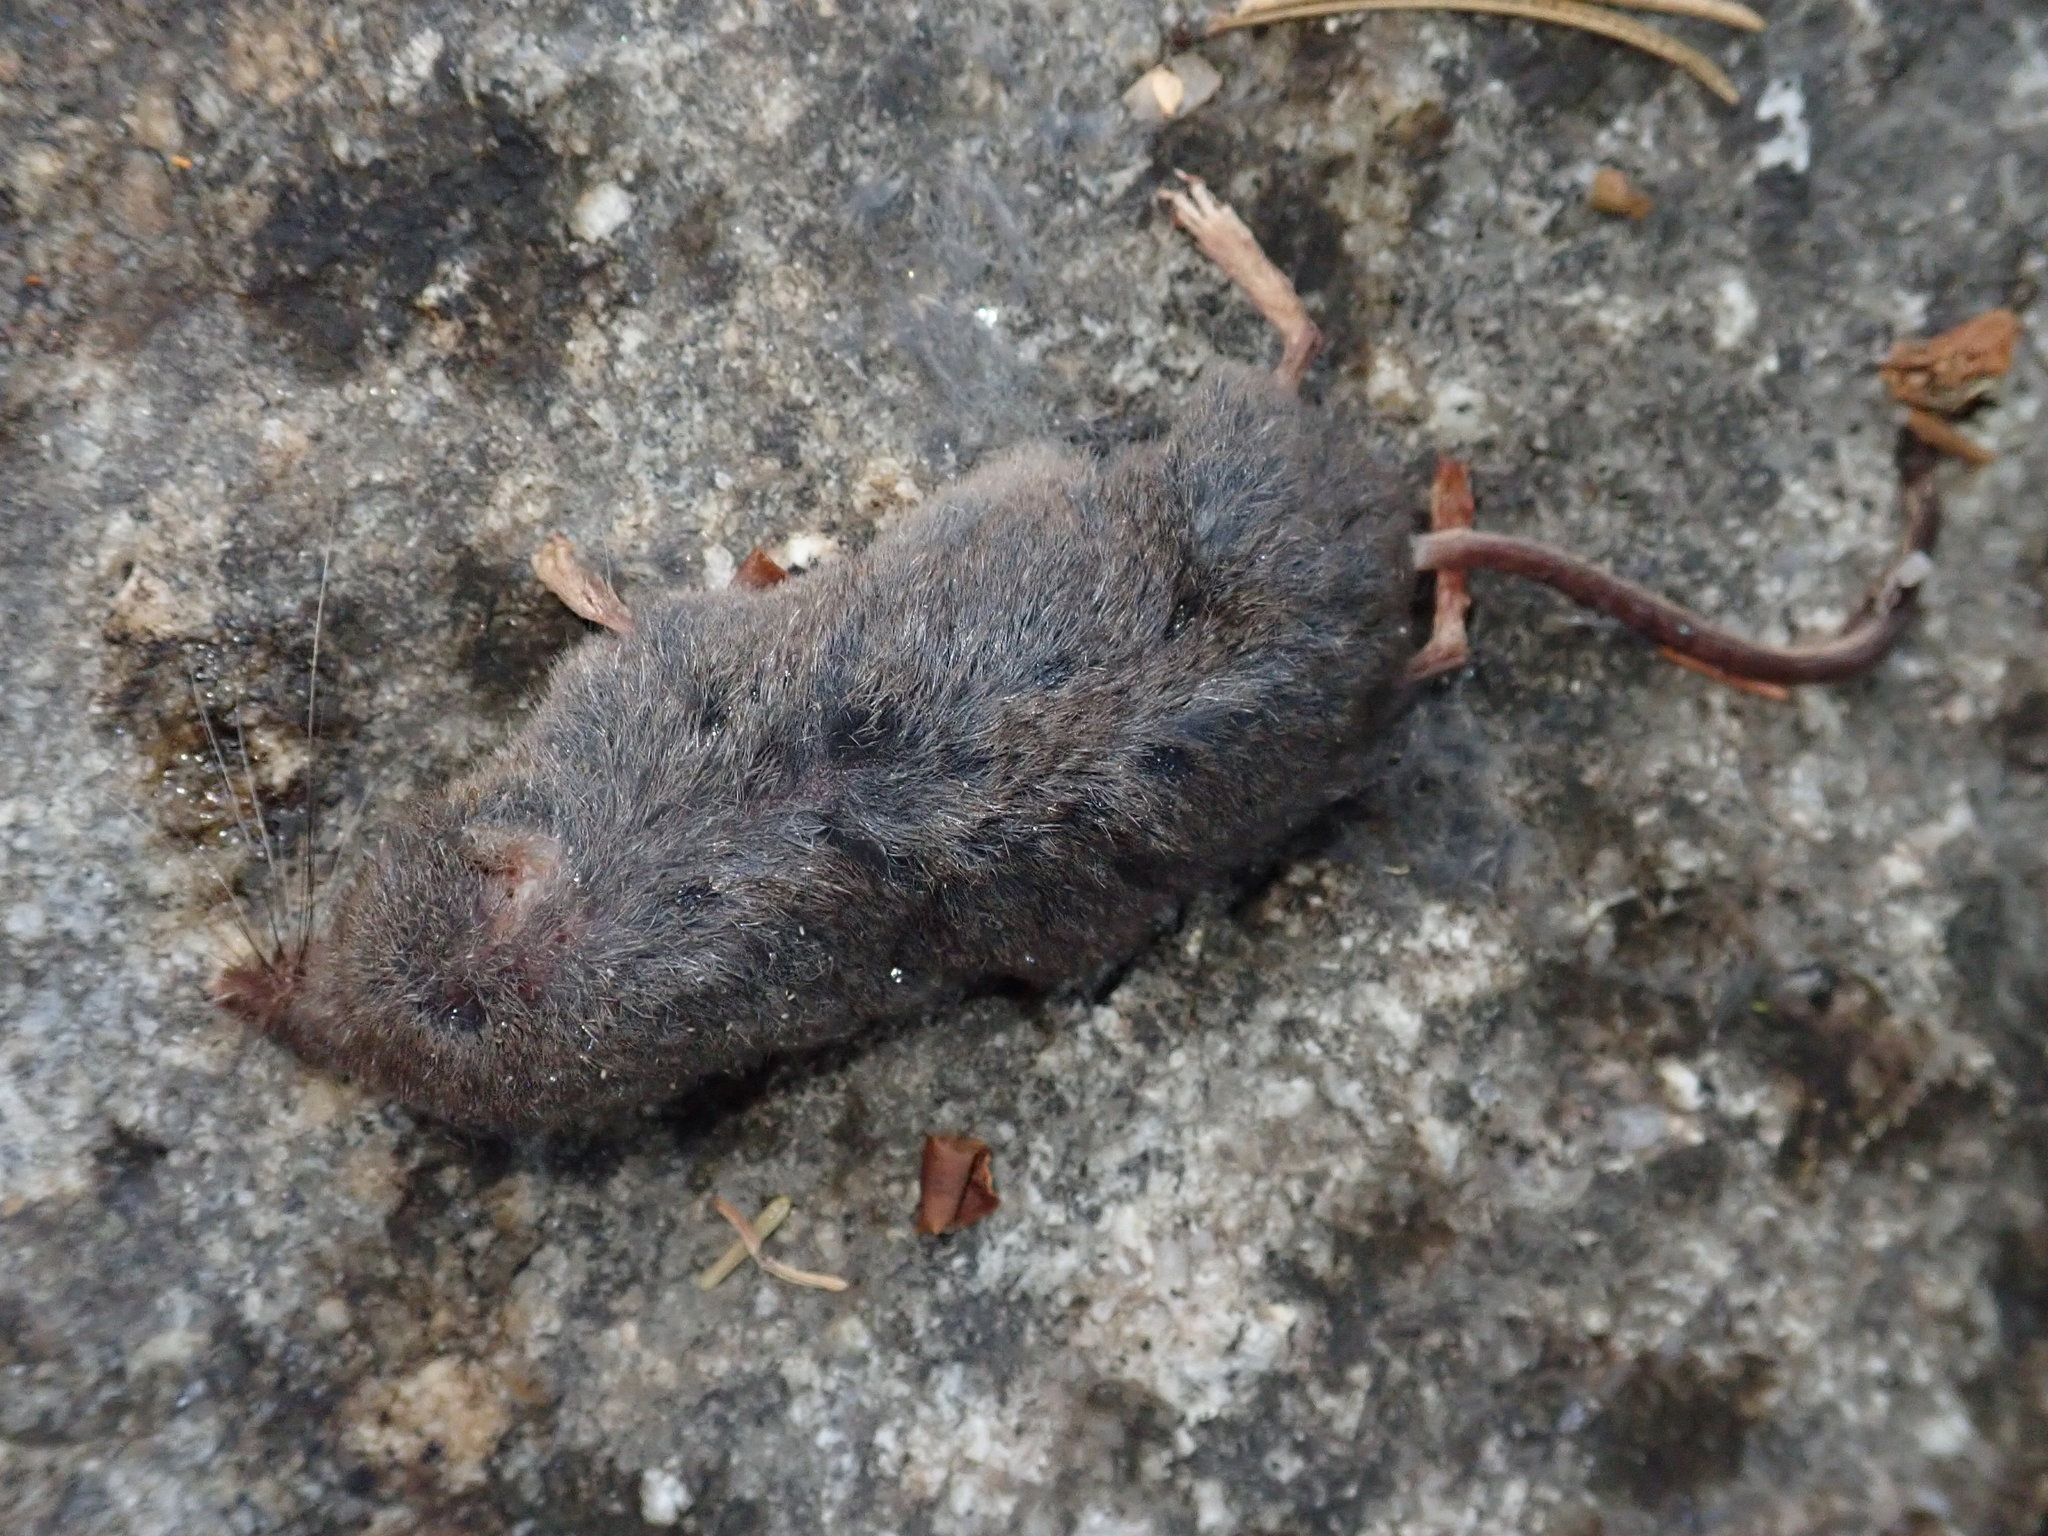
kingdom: Animalia
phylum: Chordata
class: Mammalia
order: Soricomorpha
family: Soricidae
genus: Sorex
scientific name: Sorex cinereus
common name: Cinereus shrew
